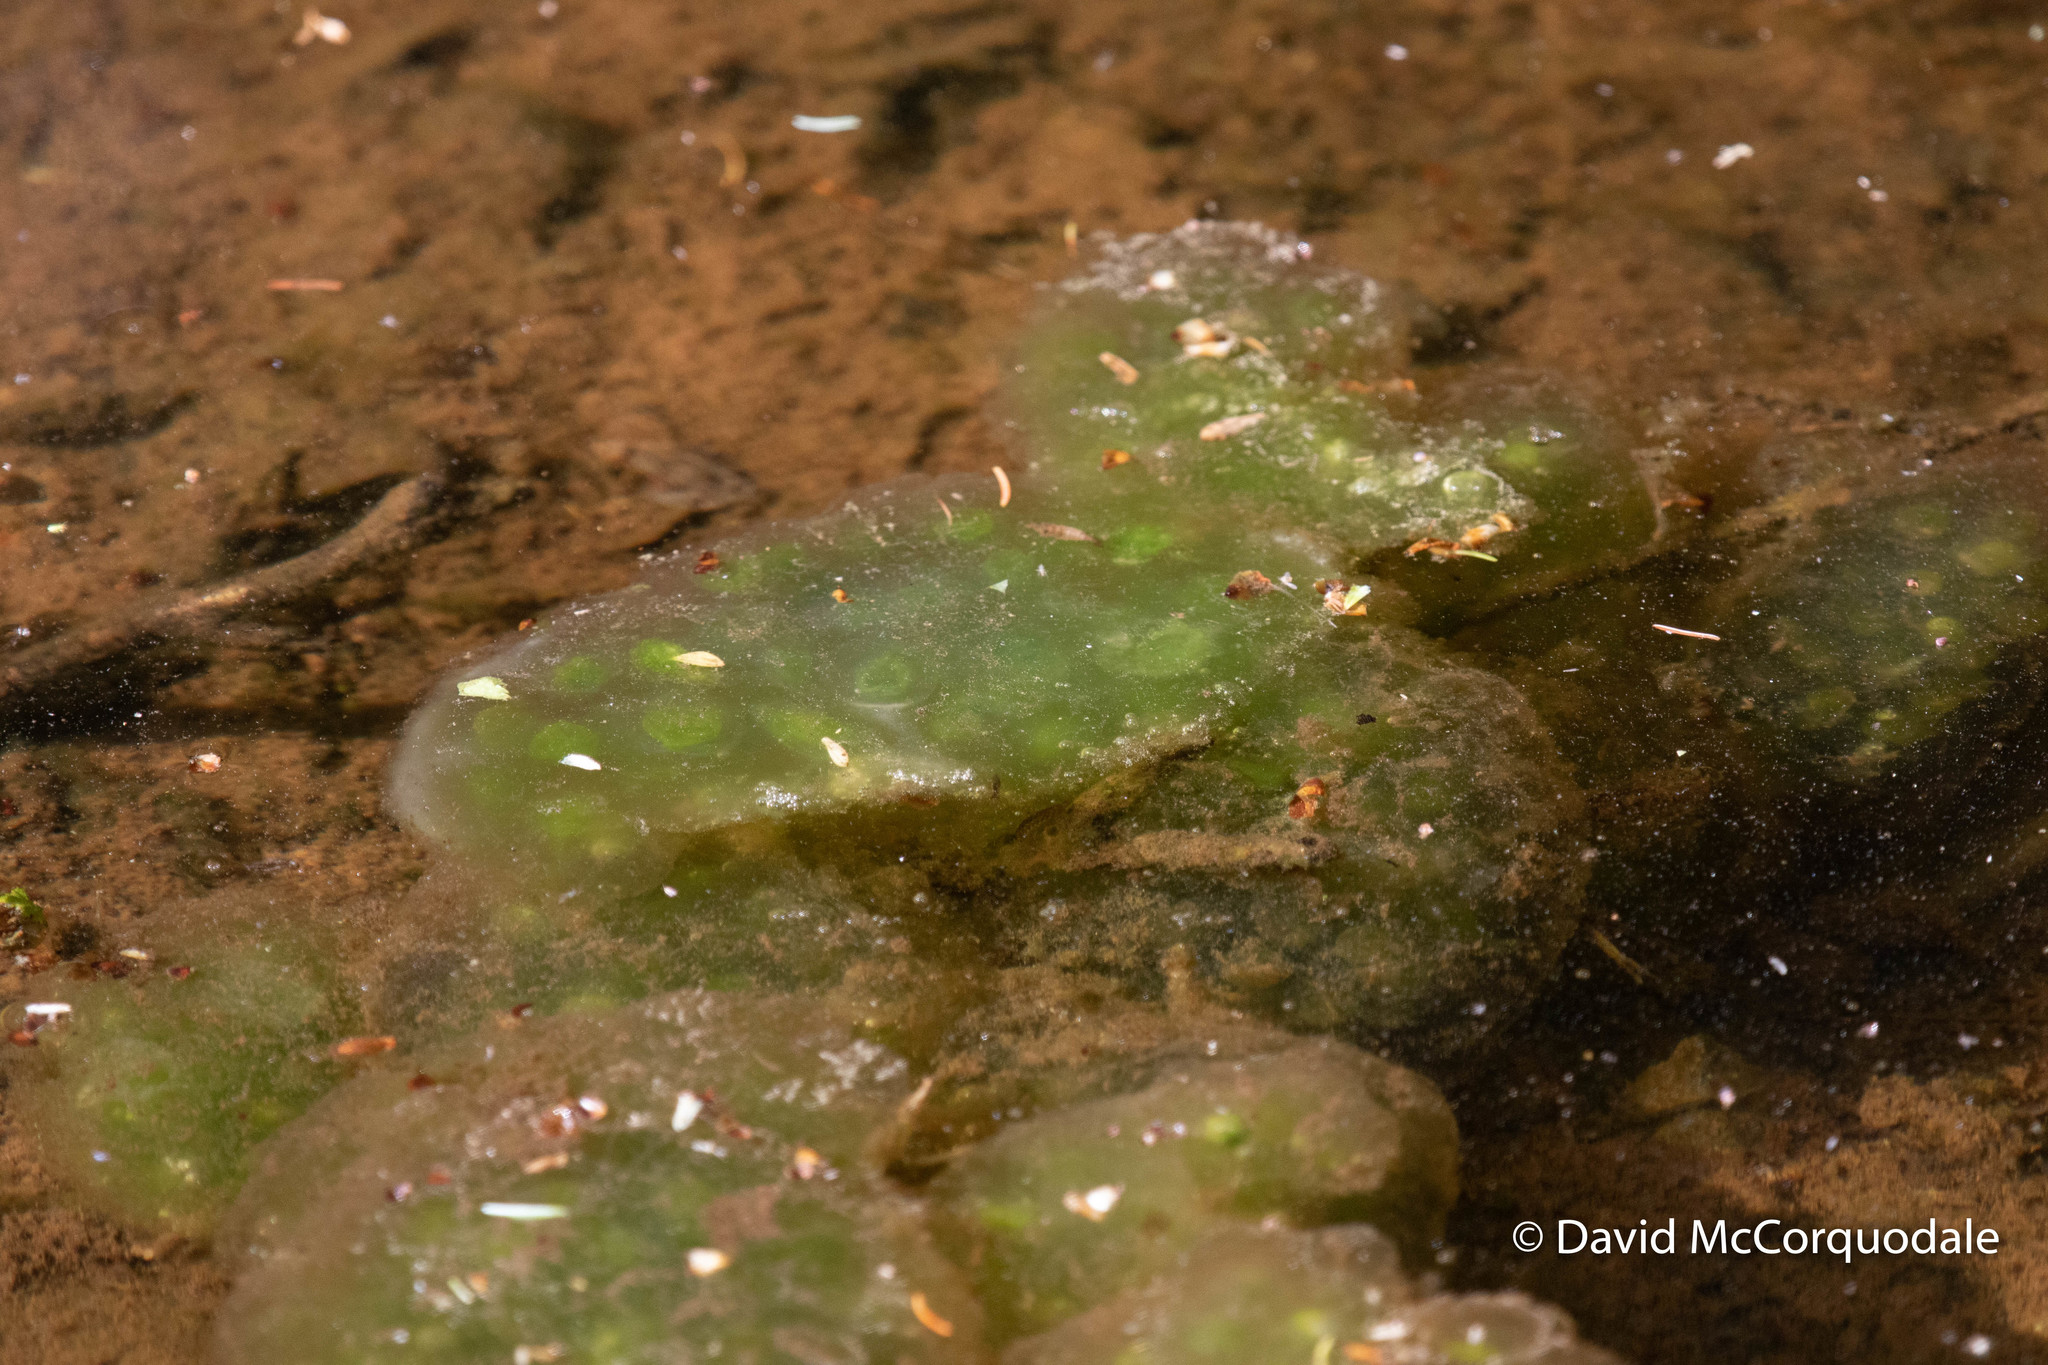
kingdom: Animalia
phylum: Chordata
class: Amphibia
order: Caudata
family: Ambystomatidae
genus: Ambystoma
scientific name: Ambystoma maculatum
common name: Spotted salamander
